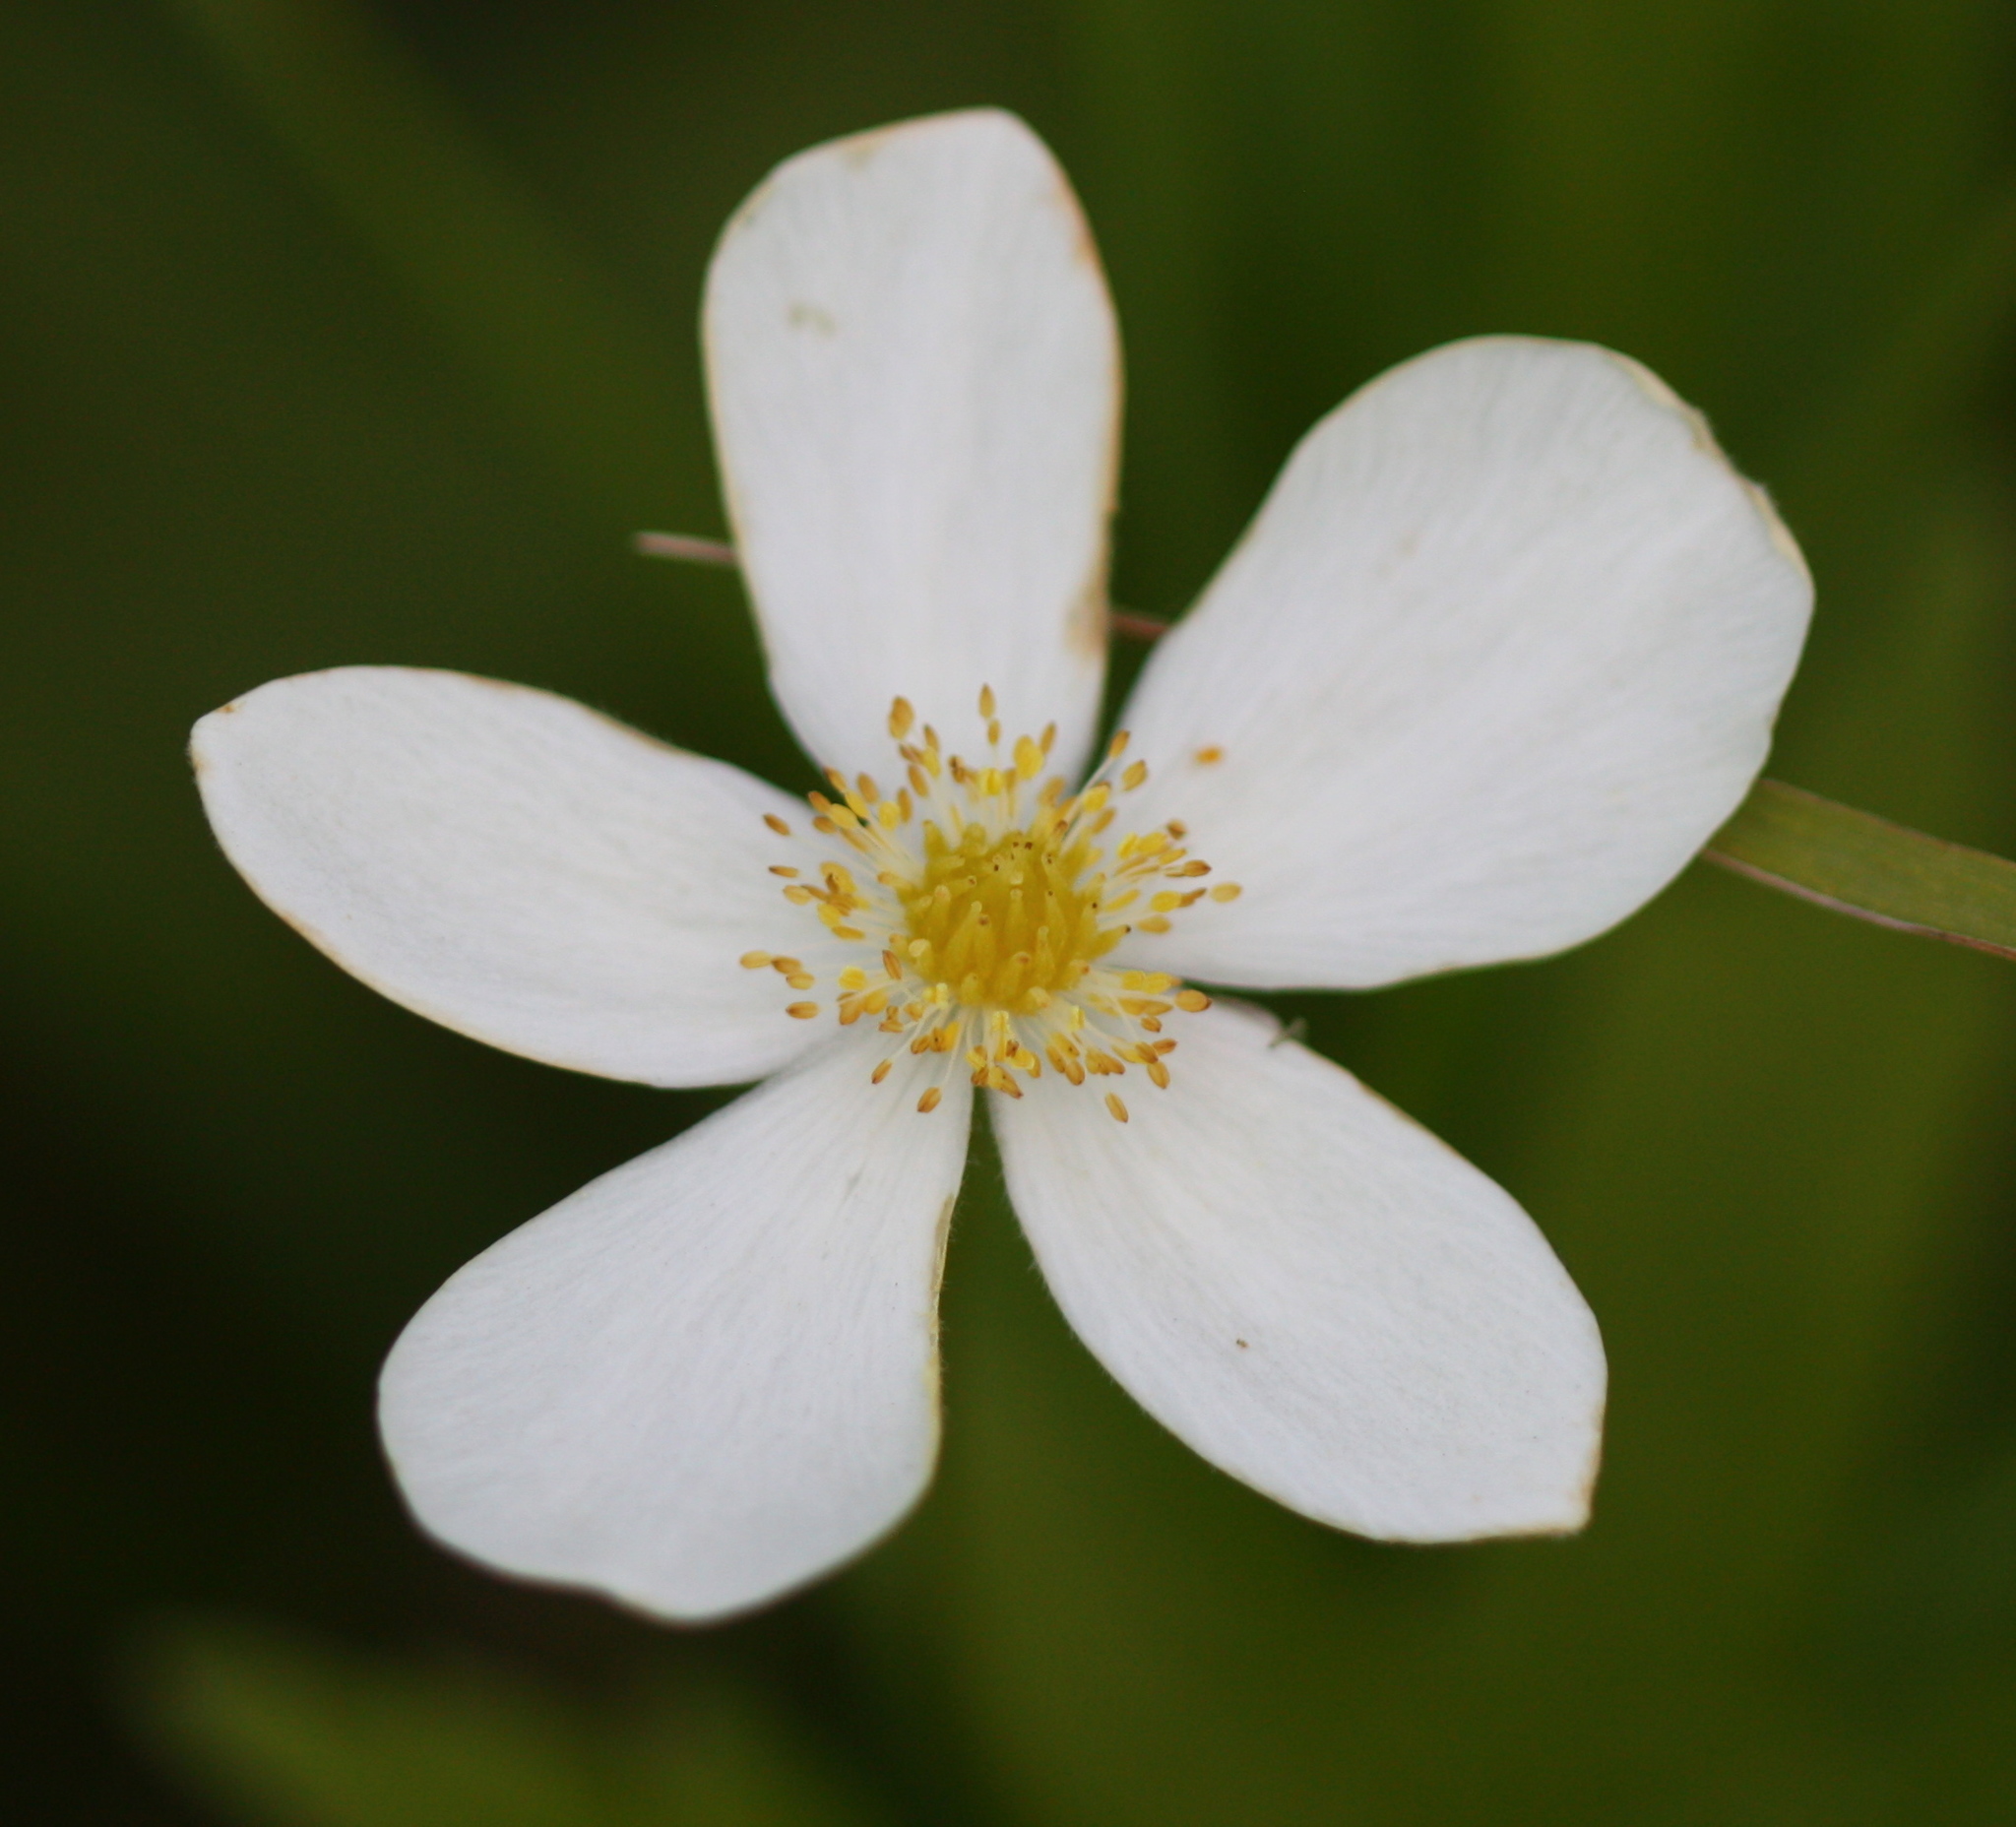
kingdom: Plantae
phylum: Tracheophyta
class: Magnoliopsida
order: Ranunculales
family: Ranunculaceae
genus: Anemonastrum
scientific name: Anemonastrum canadense
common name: Canada anemone
